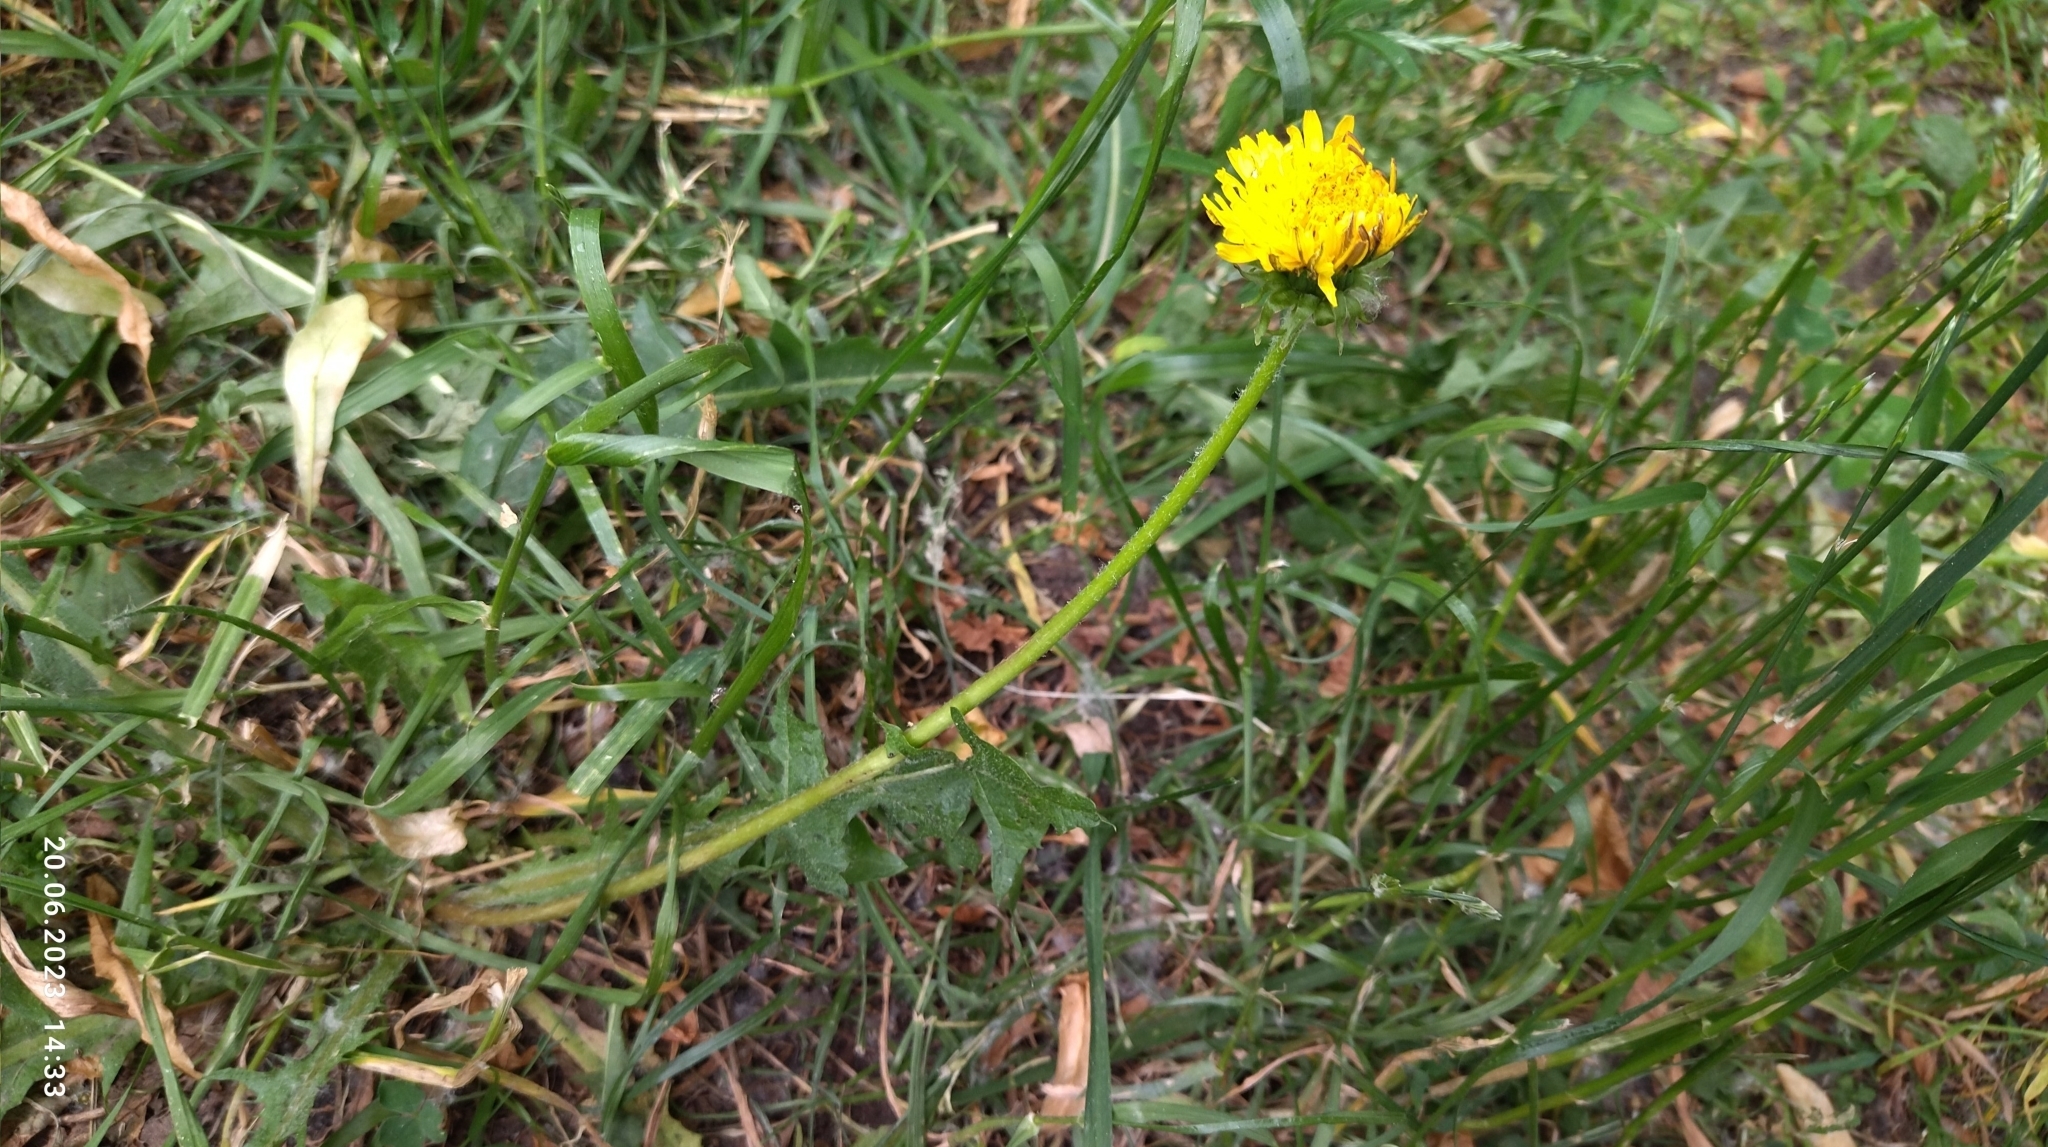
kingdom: Plantae
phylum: Tracheophyta
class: Magnoliopsida
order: Asterales
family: Asteraceae
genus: Taraxacum
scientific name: Taraxacum officinale
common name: Common dandelion
